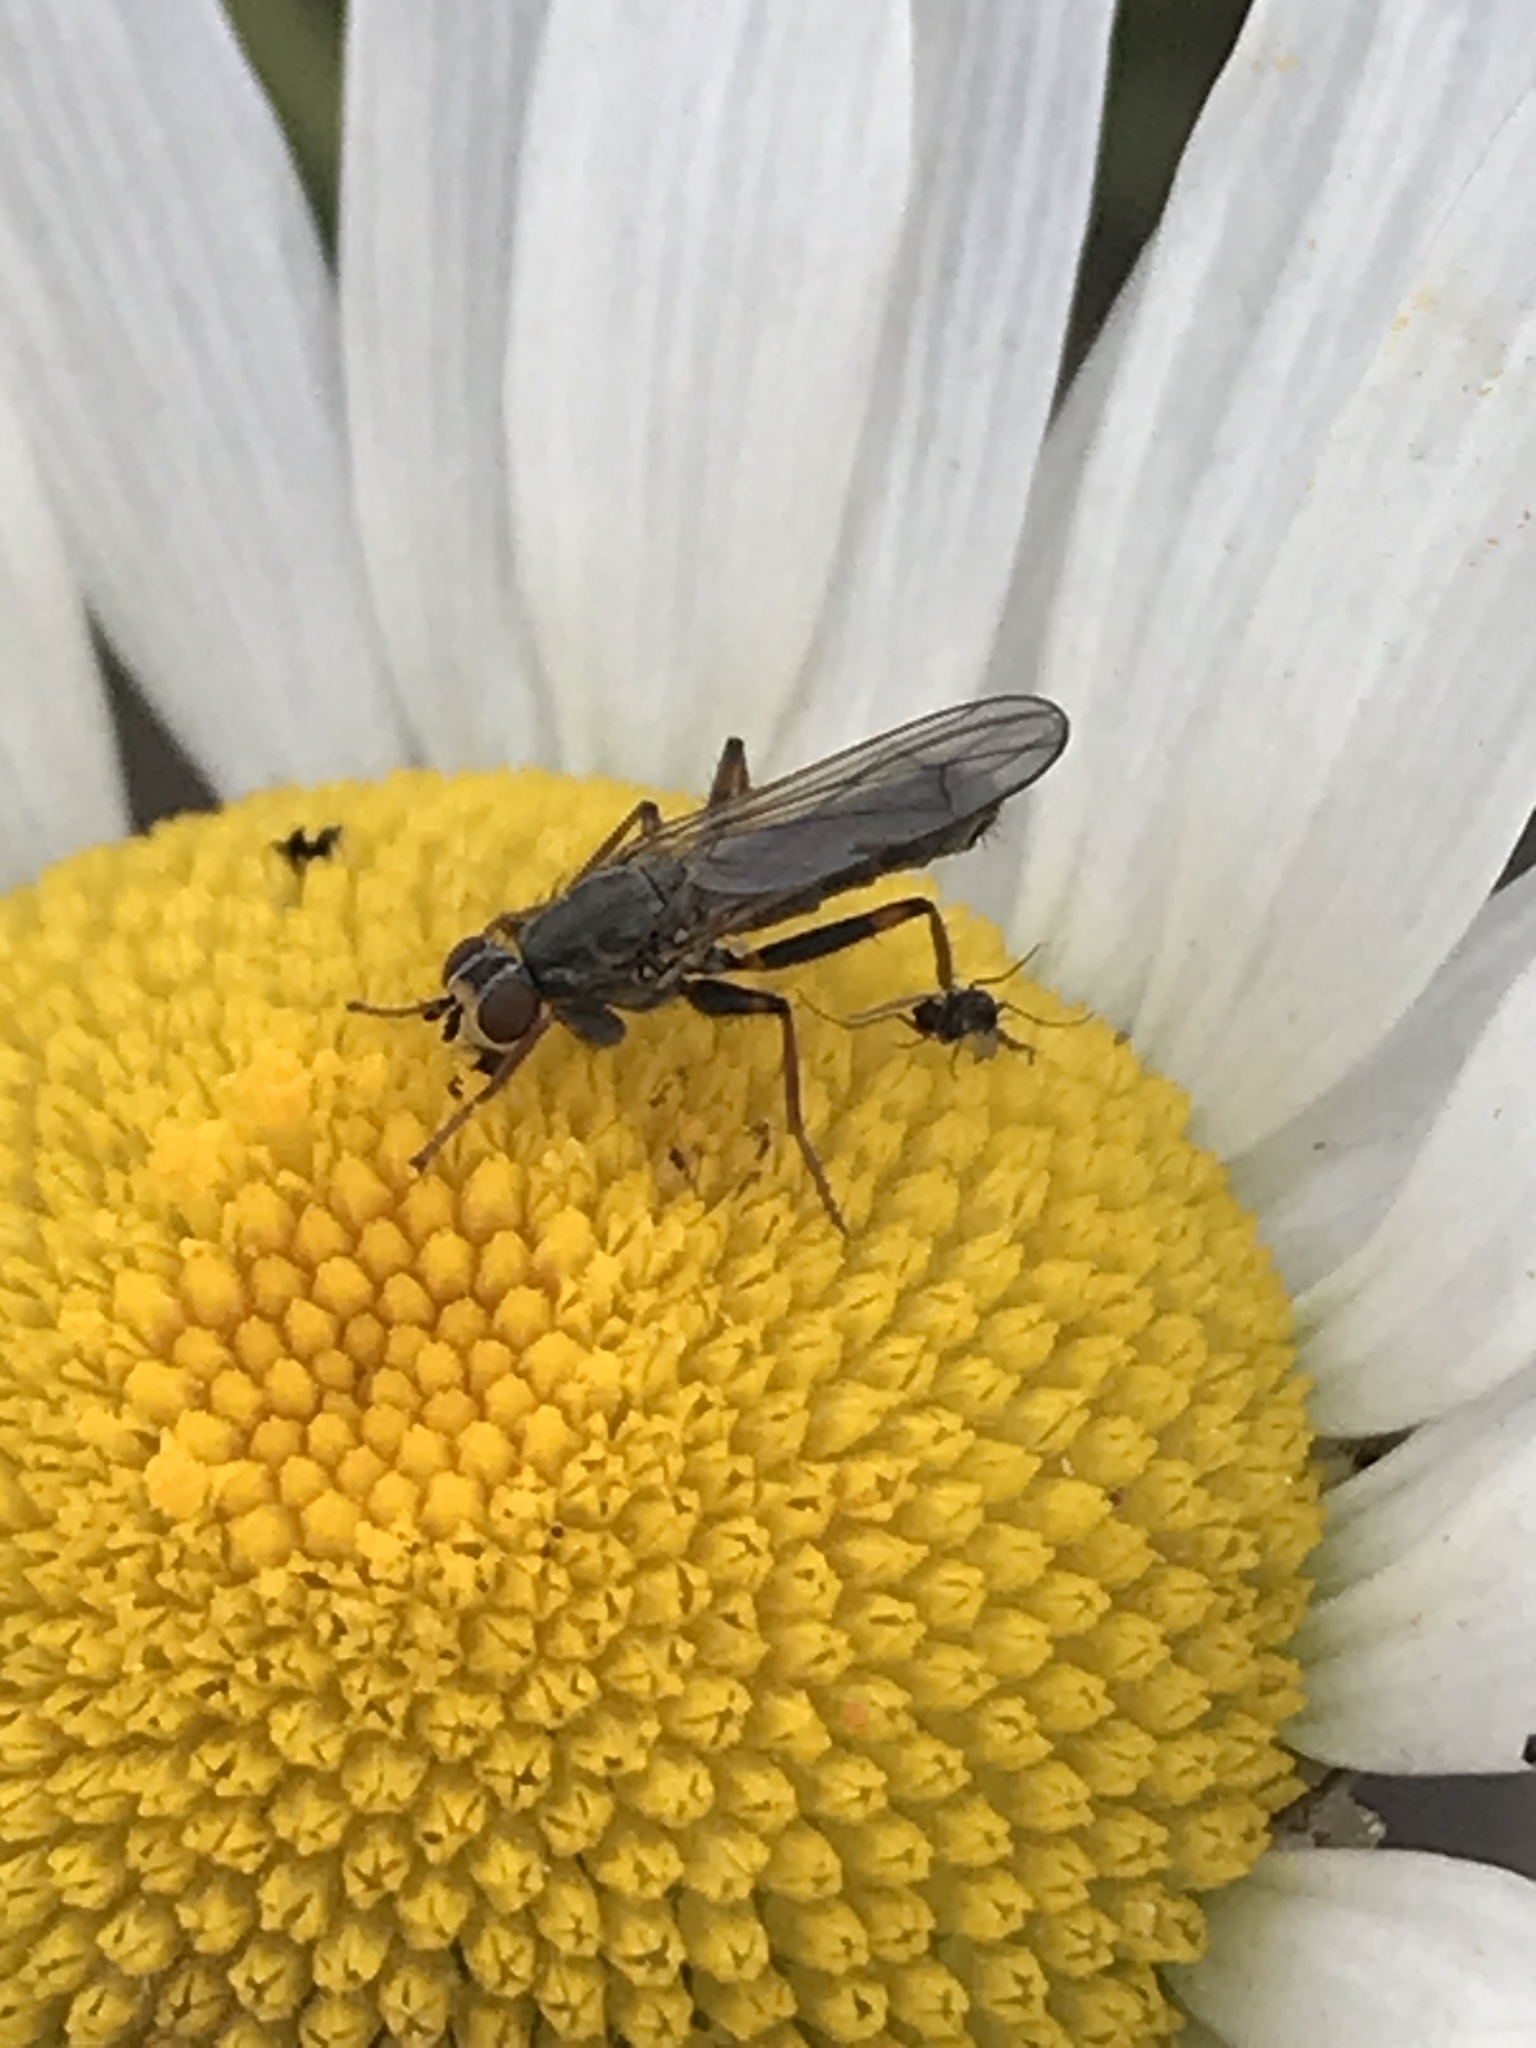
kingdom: Animalia
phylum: Arthropoda
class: Insecta
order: Diptera
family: Scathophagidae
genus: Spaziphora
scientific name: Spaziphora cincta
